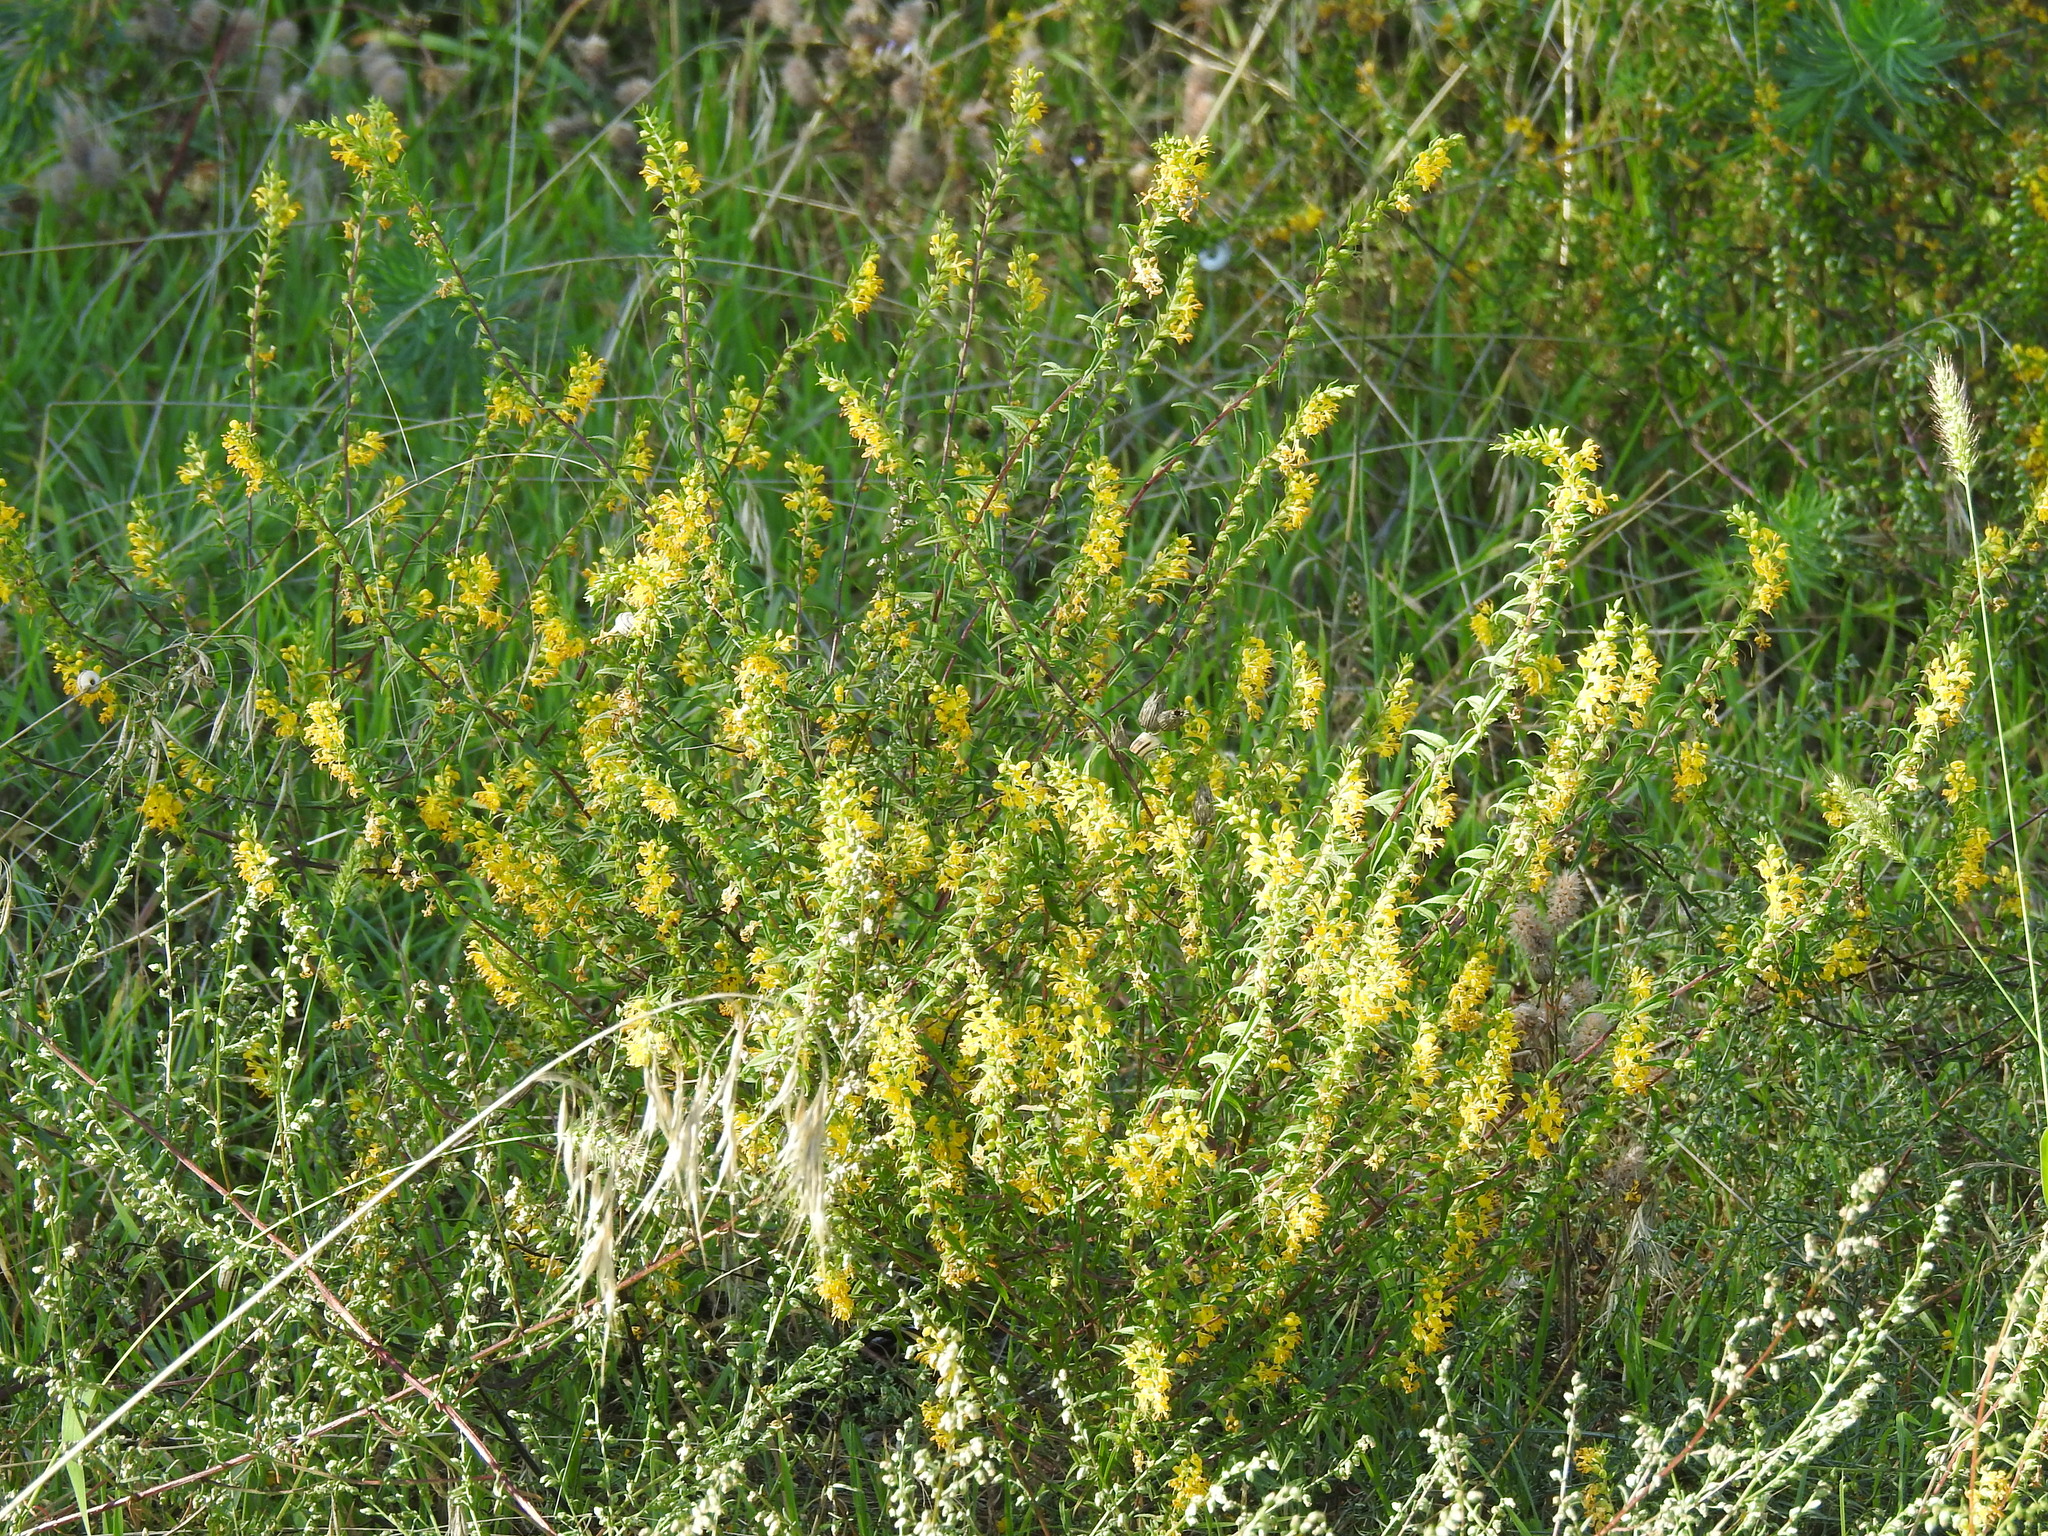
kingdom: Plantae
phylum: Tracheophyta
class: Magnoliopsida
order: Lamiales
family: Orobanchaceae
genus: Odontites
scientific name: Odontites luteus
